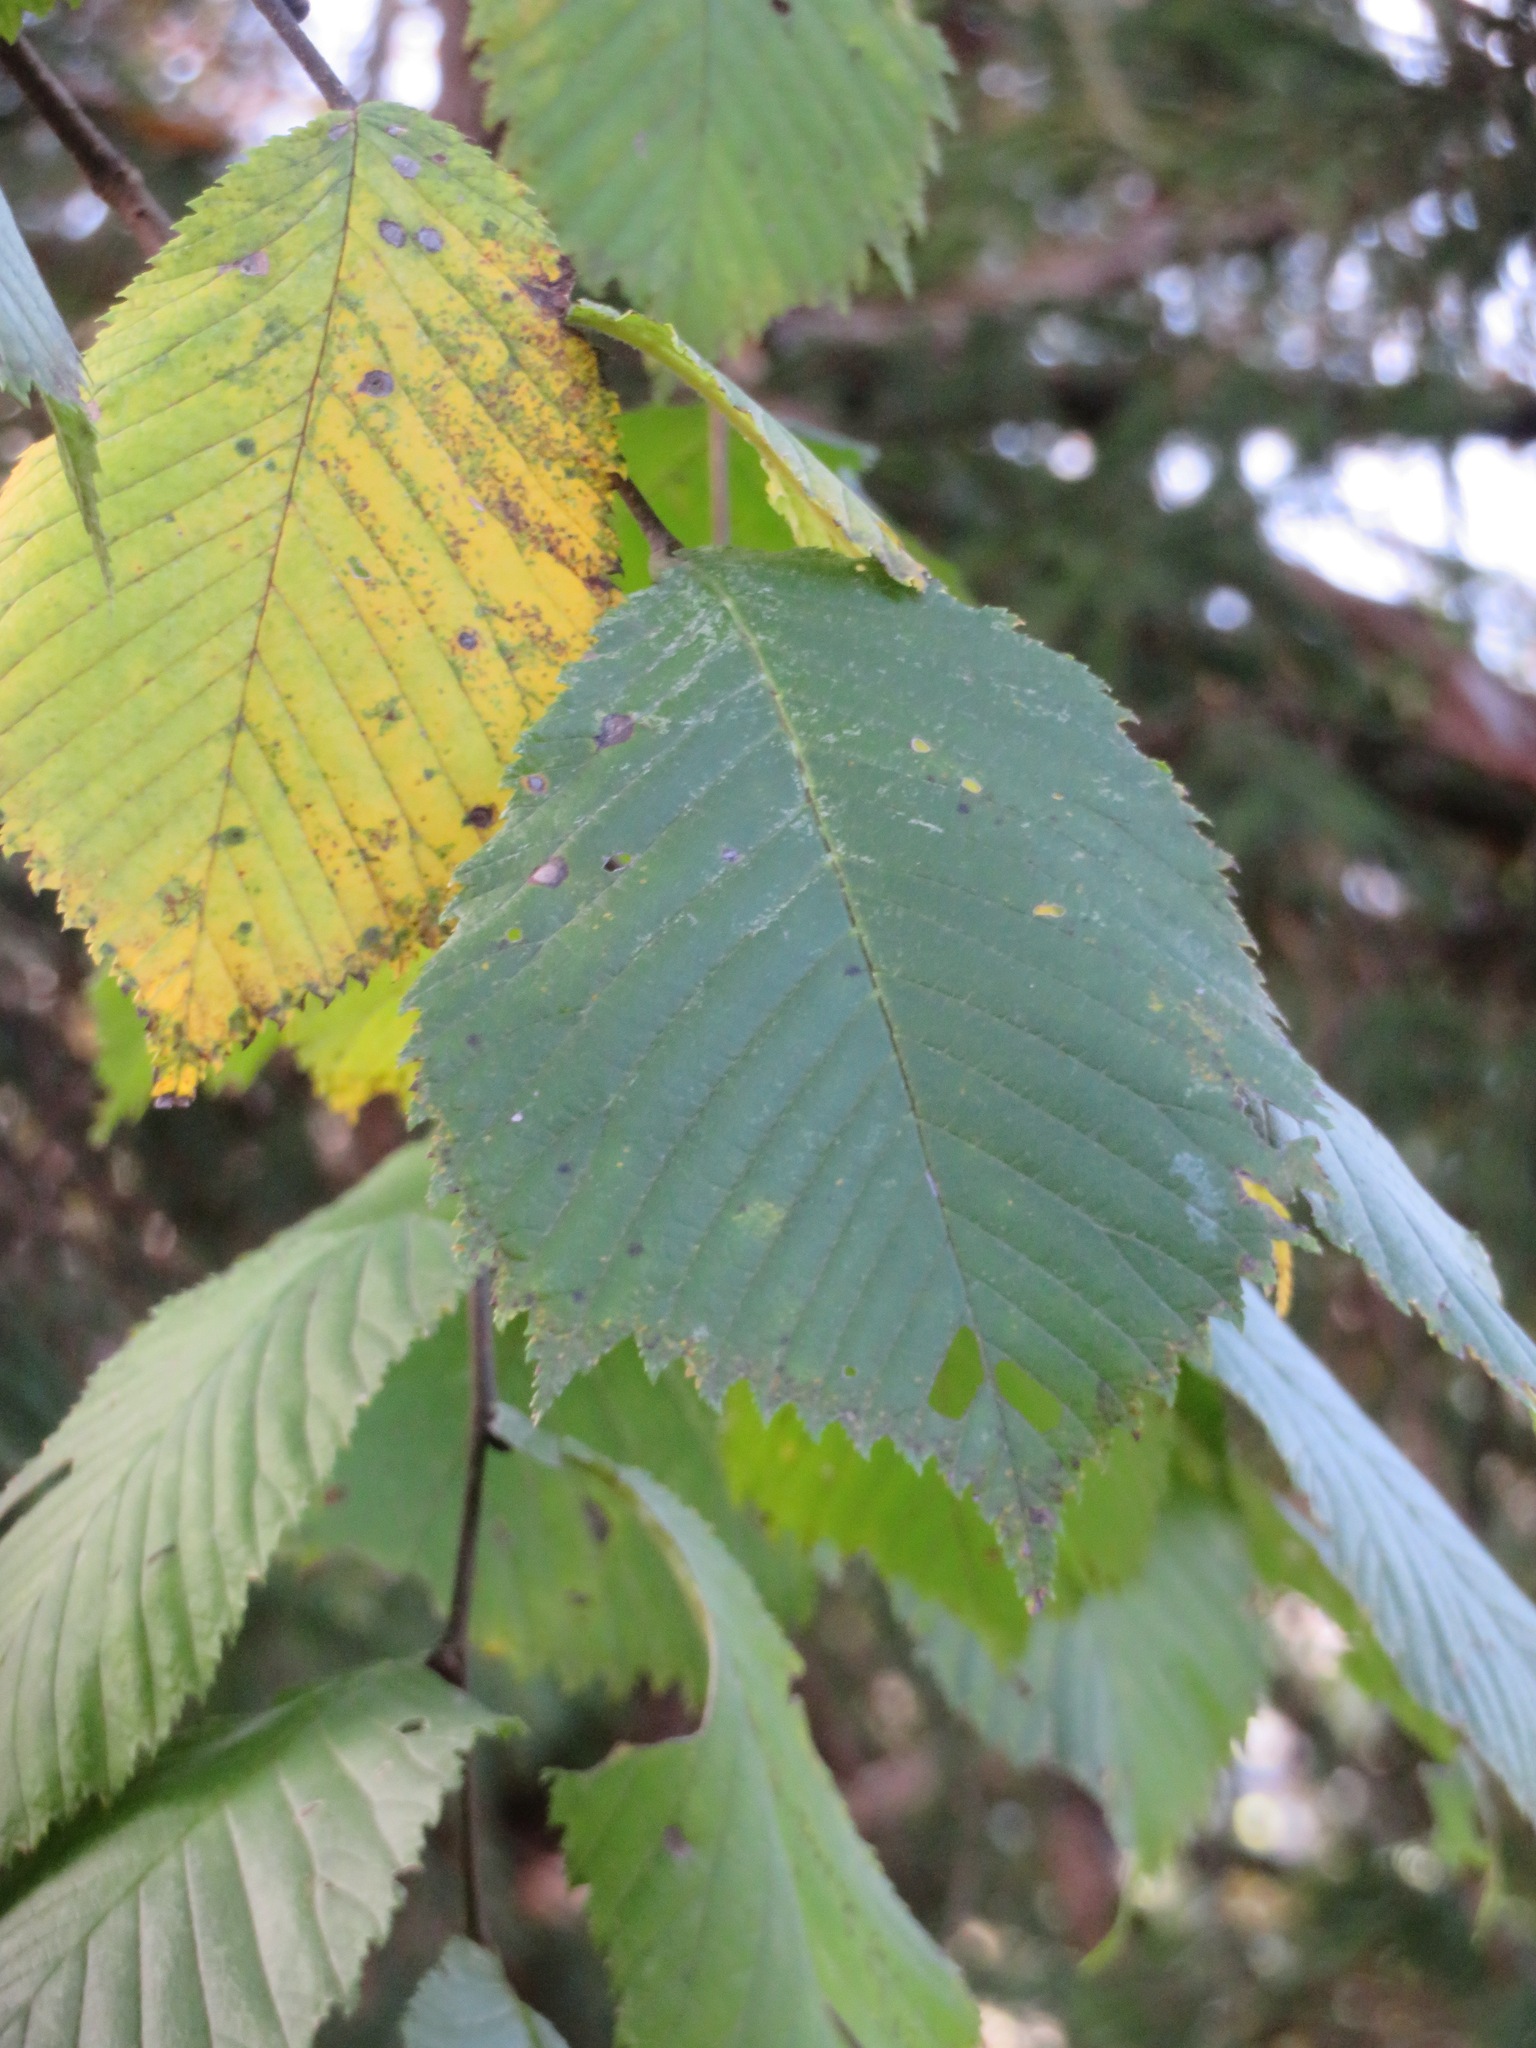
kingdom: Plantae
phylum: Tracheophyta
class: Magnoliopsida
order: Rosales
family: Ulmaceae
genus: Ulmus
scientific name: Ulmus glabra
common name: Wych elm
